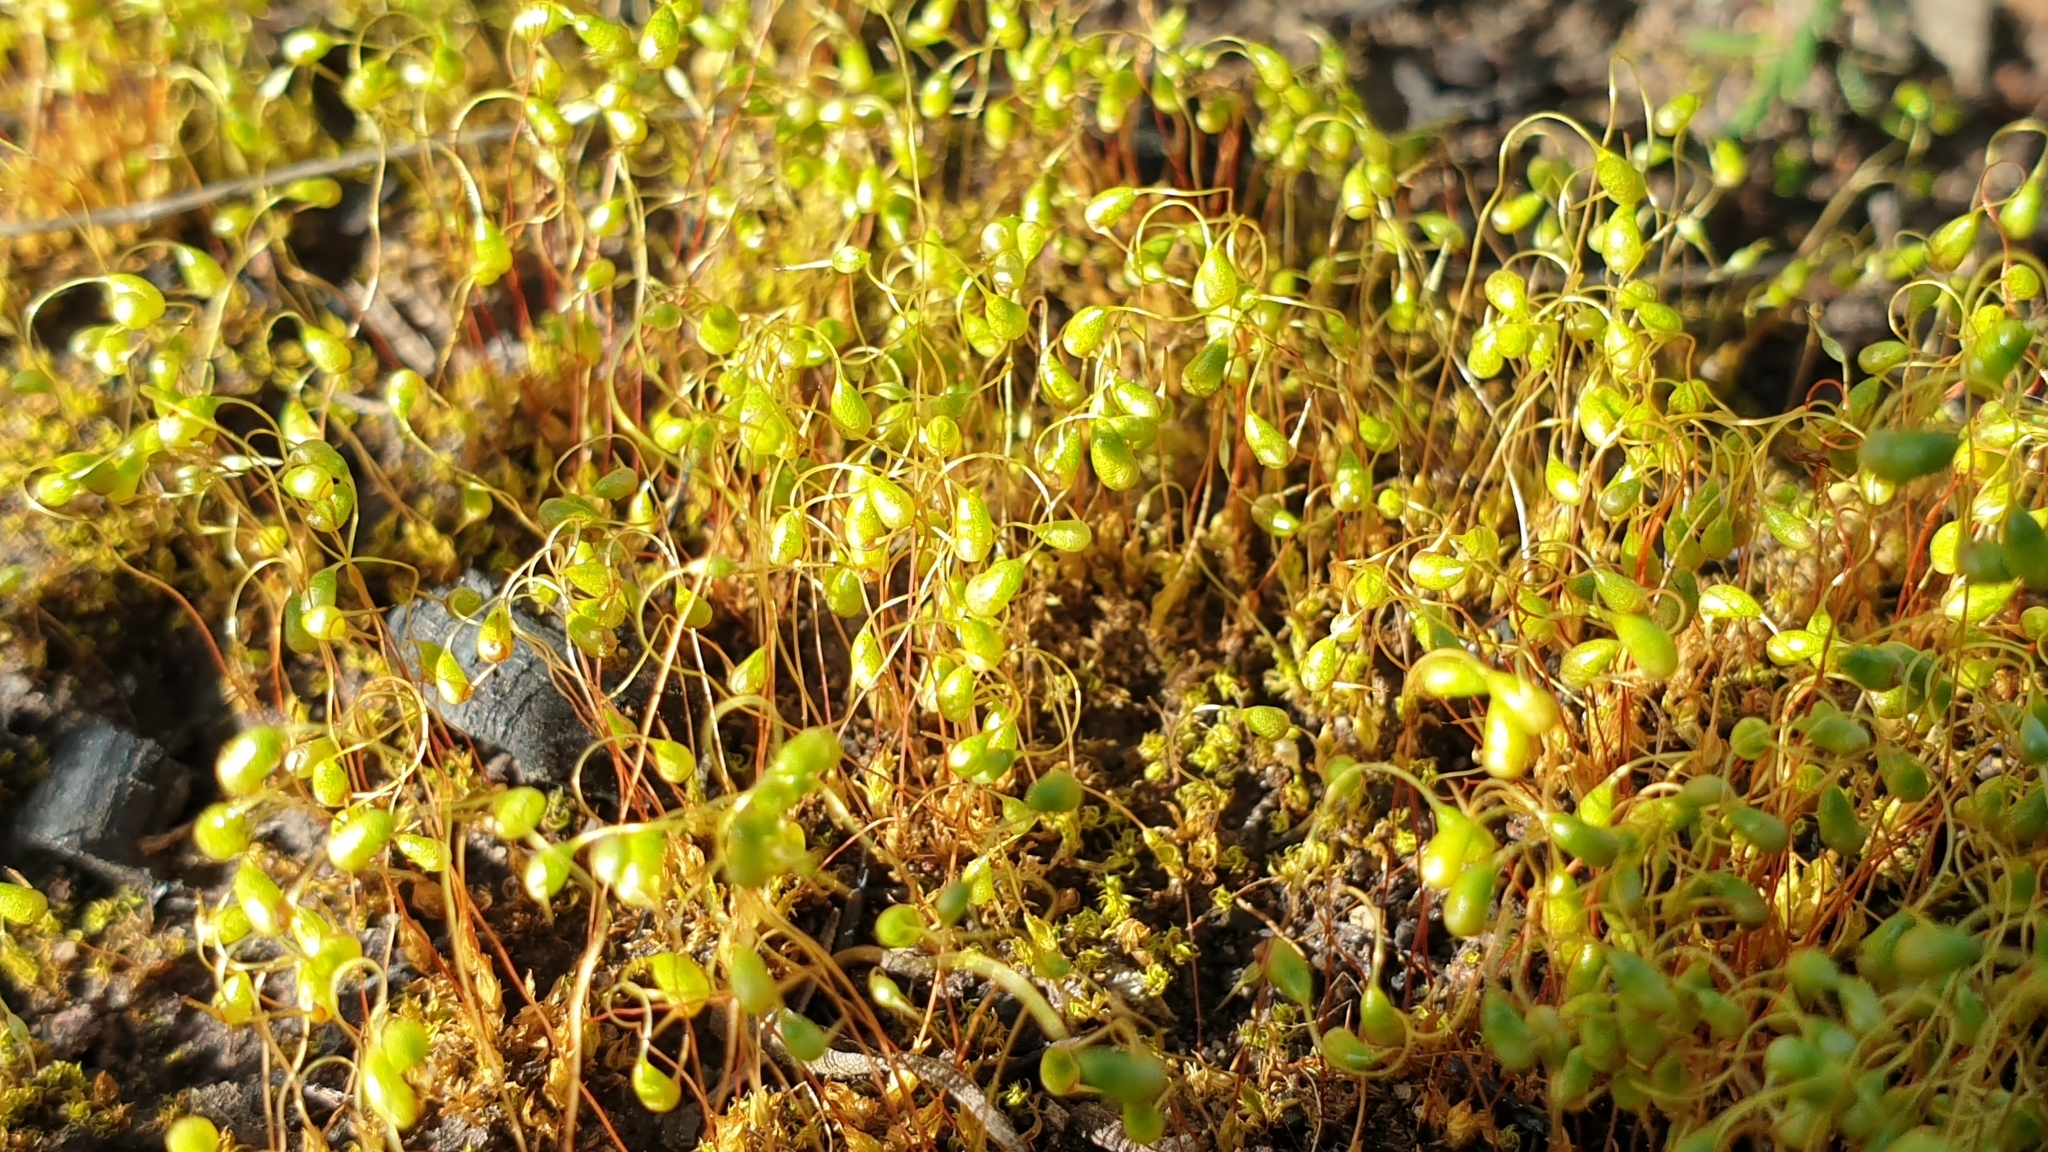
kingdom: Plantae
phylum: Bryophyta
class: Bryopsida
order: Funariales
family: Funariaceae
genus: Funaria
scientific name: Funaria hygrometrica
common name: Common cord moss
